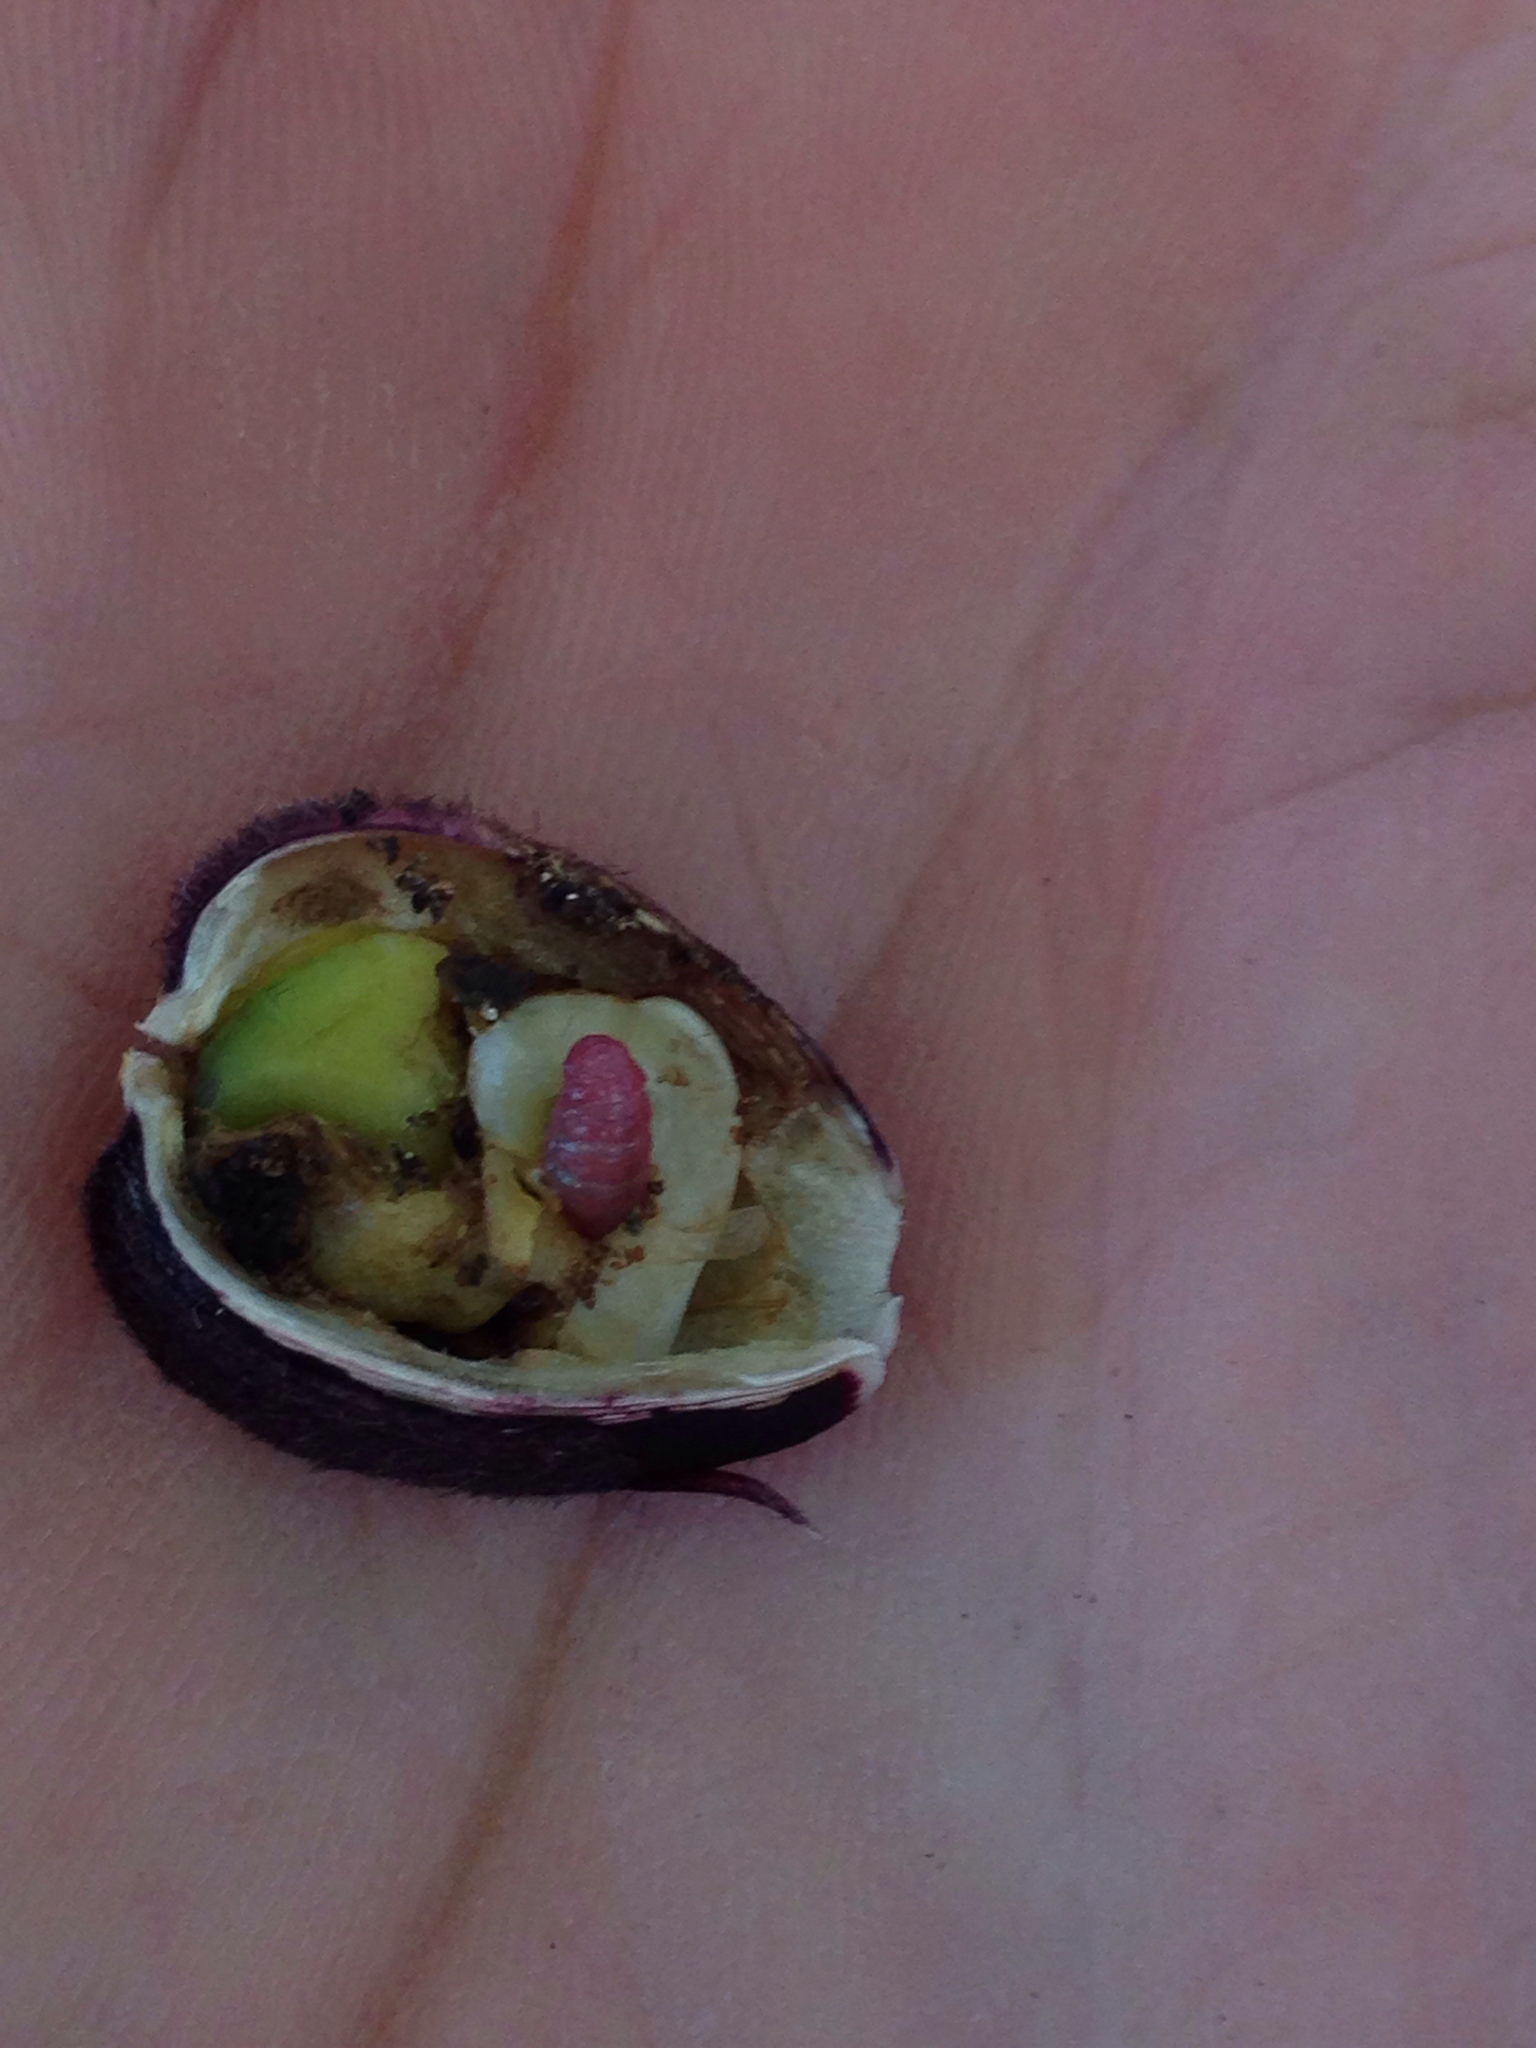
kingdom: Animalia
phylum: Arthropoda
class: Insecta
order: Coleoptera
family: Curculionidae
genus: Smicronyx
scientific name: Smicronyx fulvus
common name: Red sunflower seed weevil
